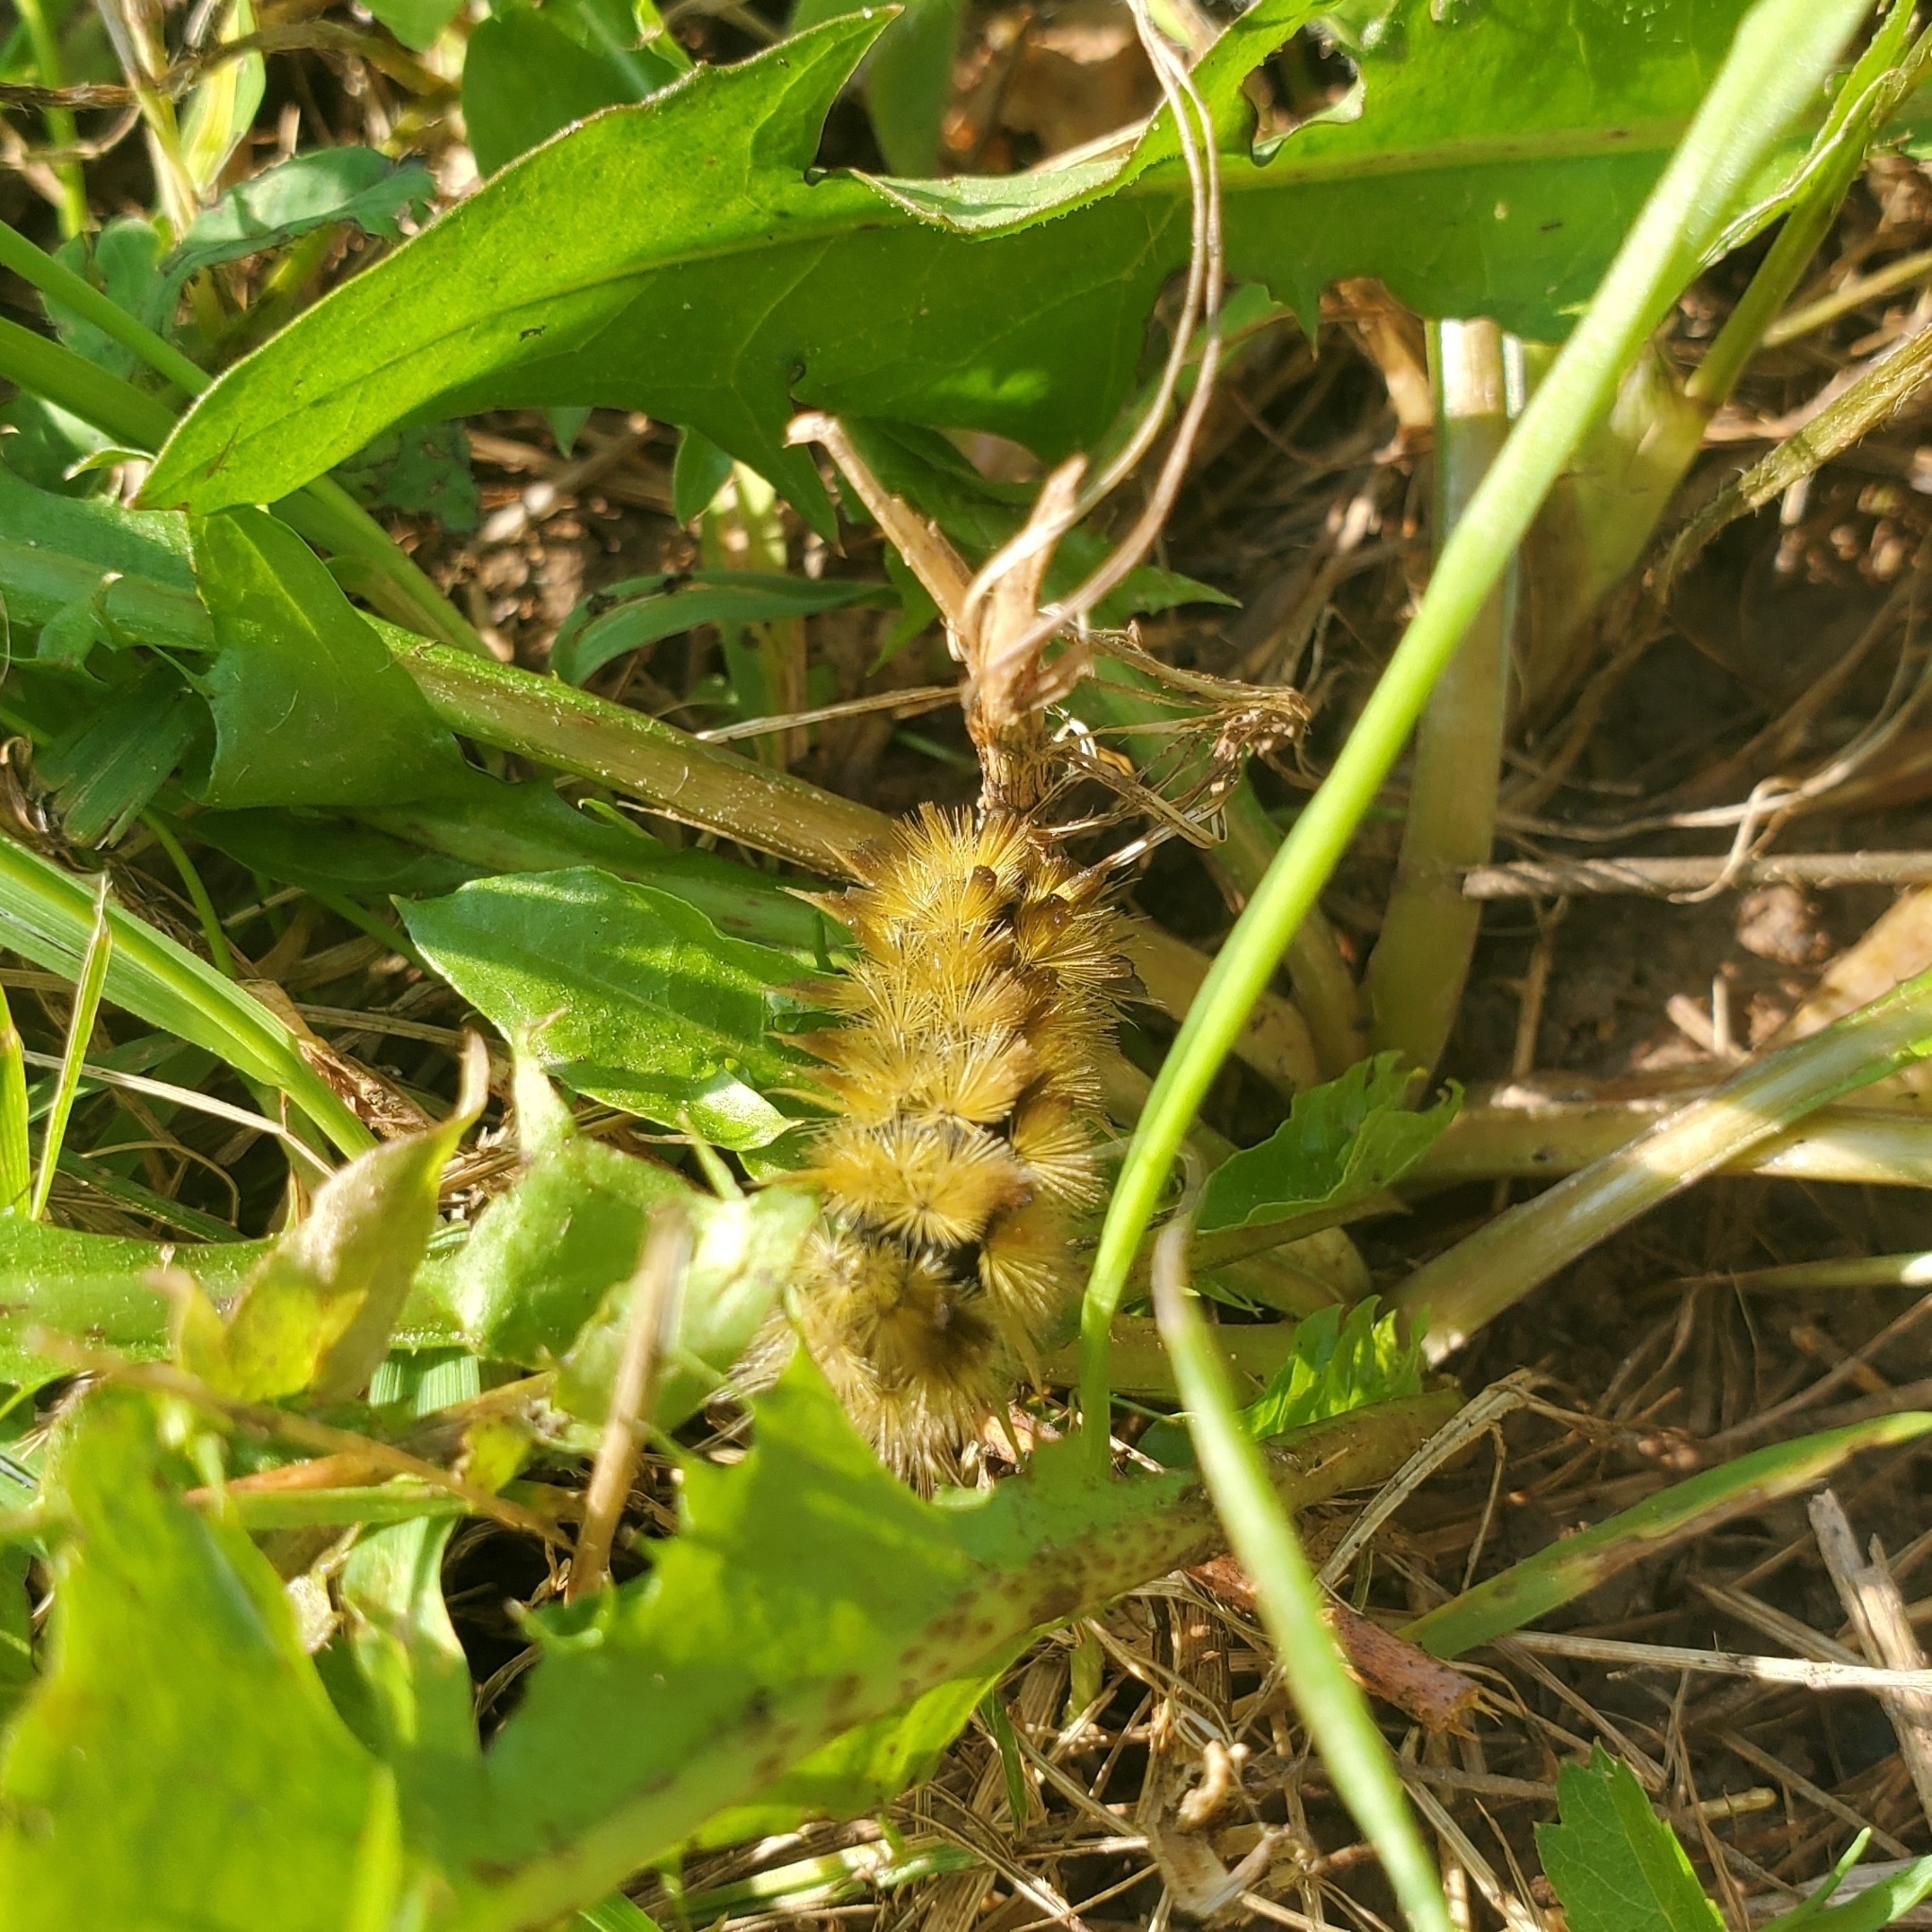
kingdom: Animalia
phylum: Arthropoda
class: Insecta
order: Lepidoptera
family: Erebidae
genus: Halysidota
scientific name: Halysidota tessellaris
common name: Banded tussock moth
